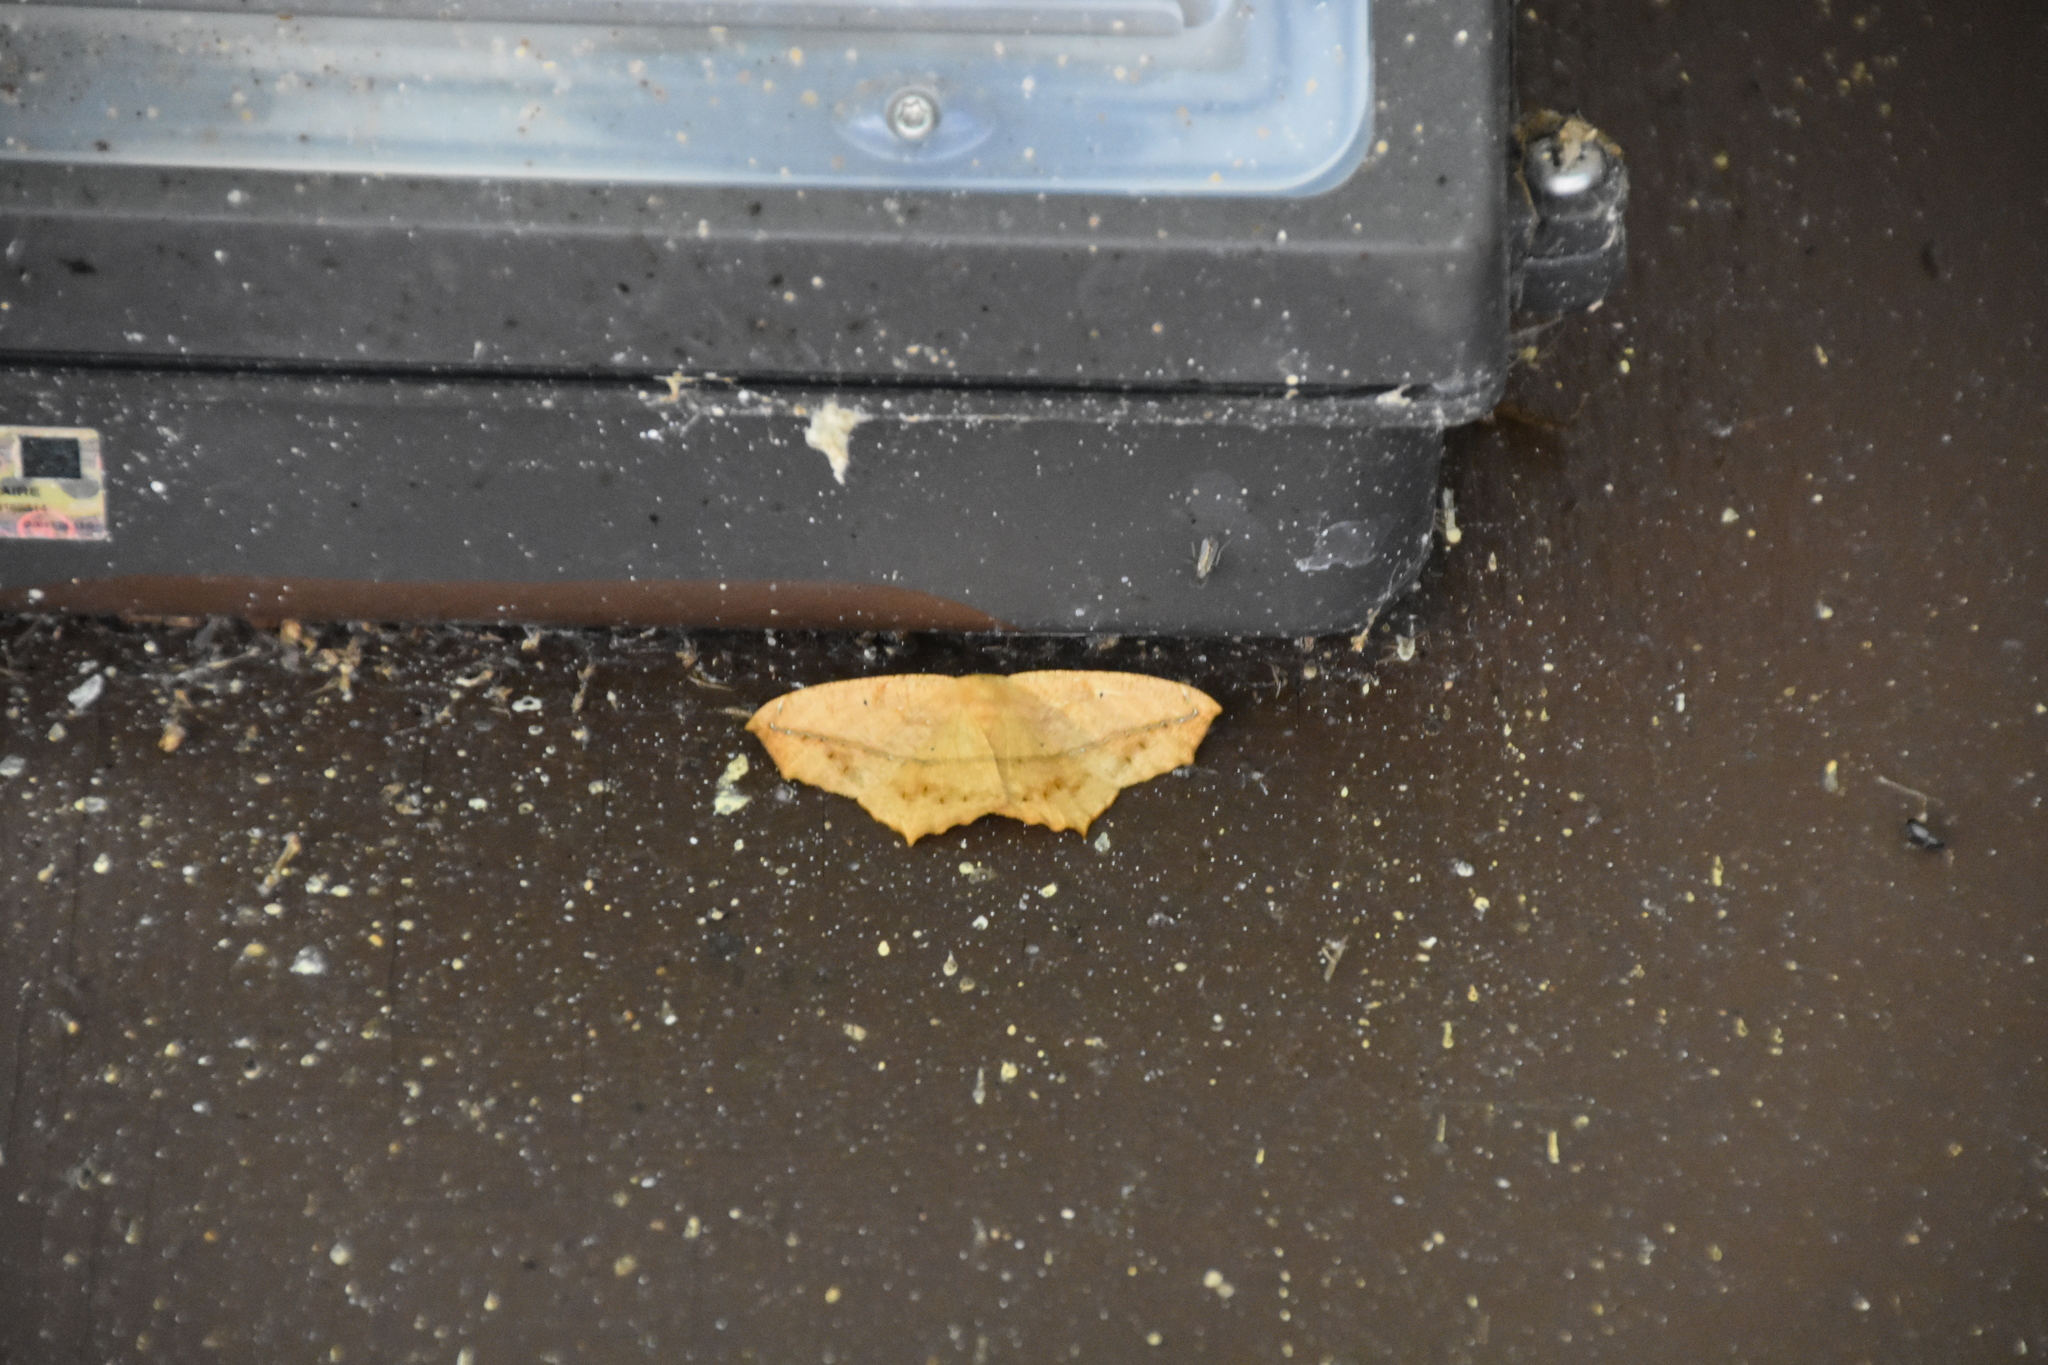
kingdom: Animalia
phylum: Arthropoda
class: Insecta
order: Lepidoptera
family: Geometridae
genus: Prochoerodes
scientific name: Prochoerodes lineola
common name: Large maple spanworm
